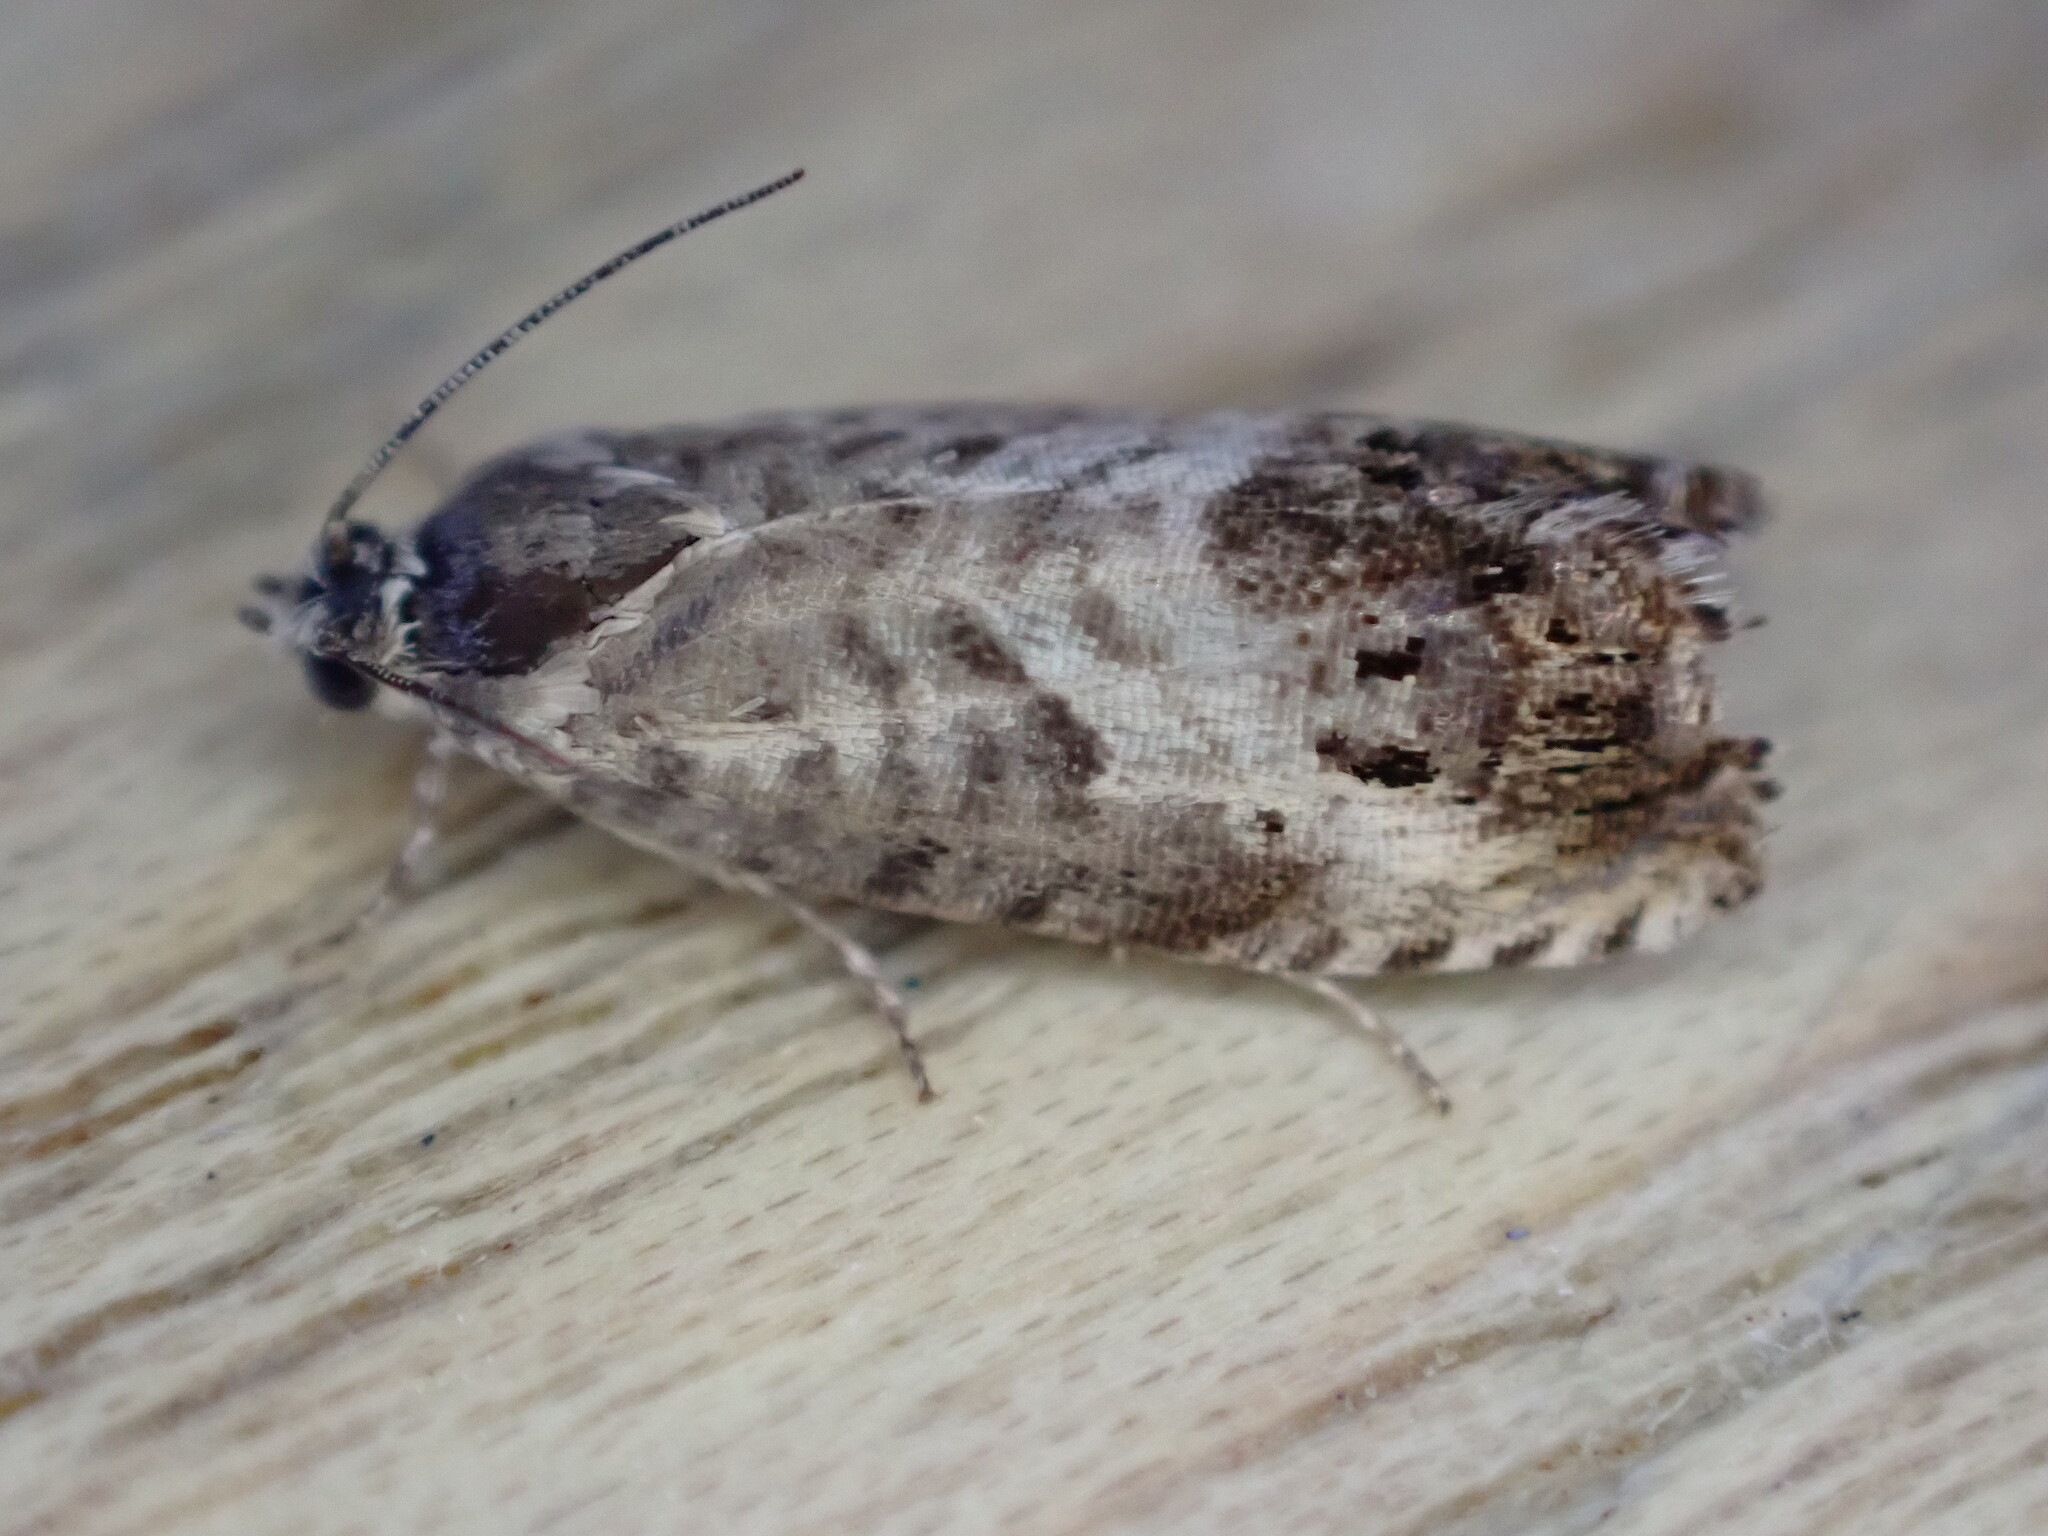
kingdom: Animalia
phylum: Arthropoda
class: Insecta
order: Lepidoptera
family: Tortricidae
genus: Pammene
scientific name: Pammene fasciana
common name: Acorn piercer
